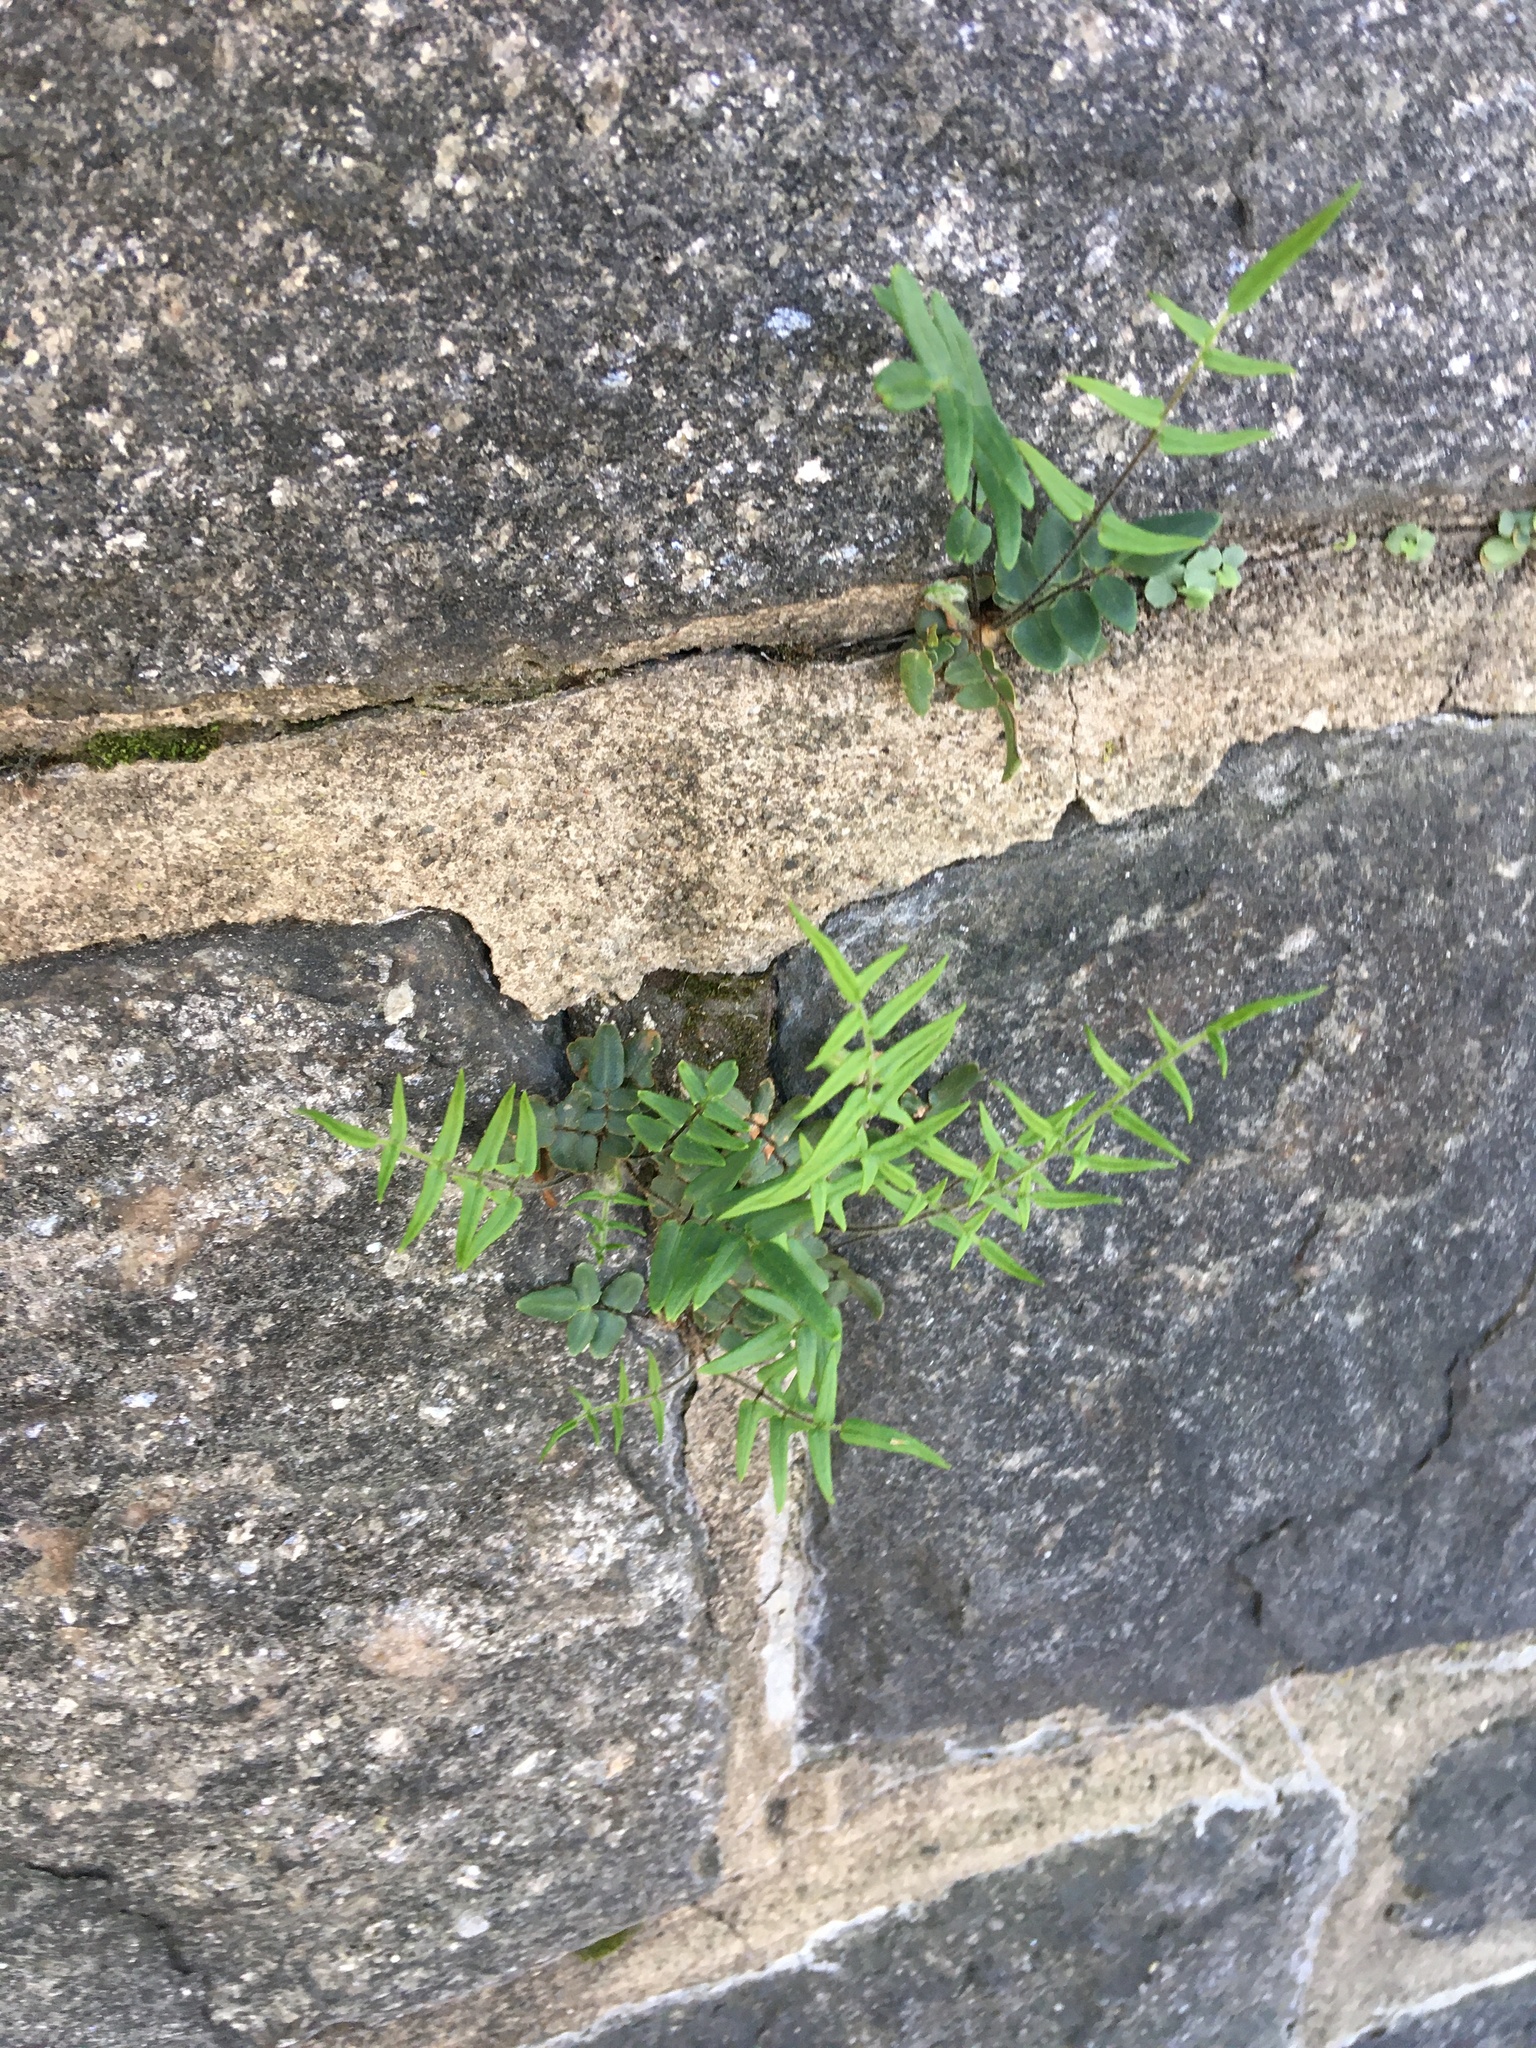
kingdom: Plantae
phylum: Tracheophyta
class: Polypodiopsida
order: Polypodiales
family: Pteridaceae
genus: Pellaea
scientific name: Pellaea atropurpurea
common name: Hairy cliffbrake
